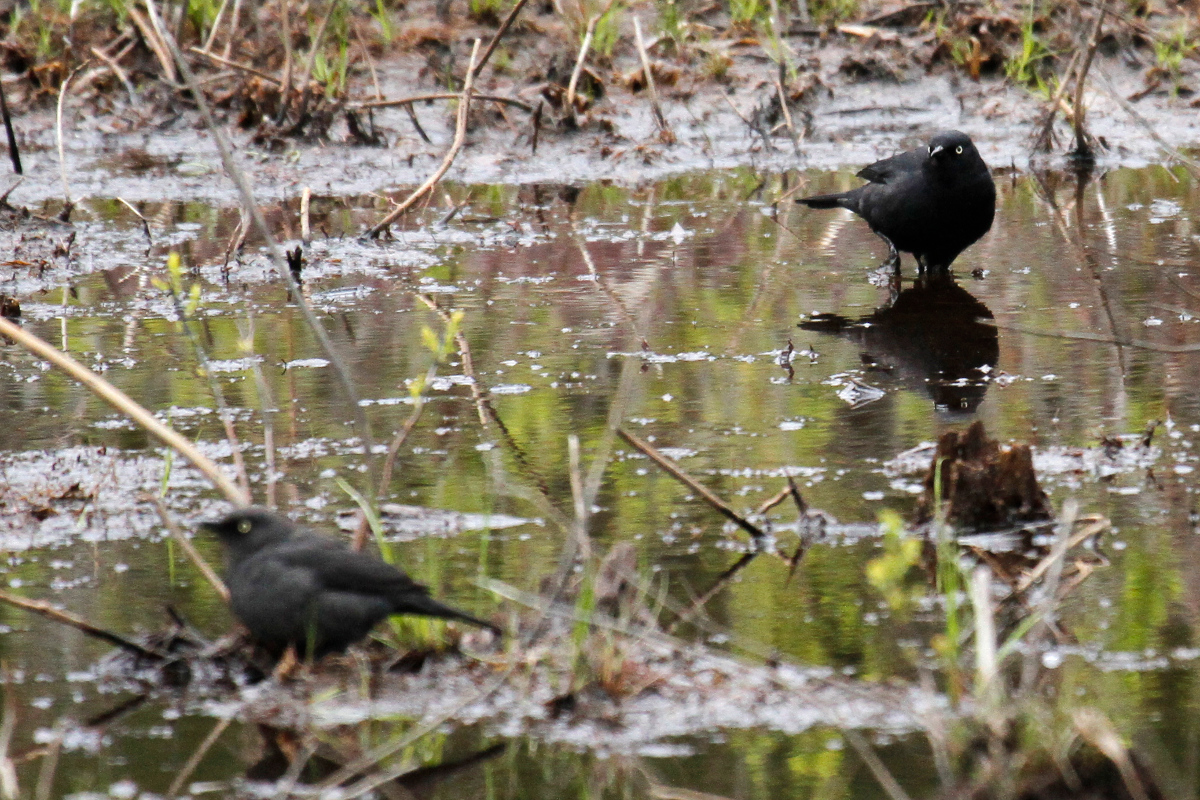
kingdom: Animalia
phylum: Chordata
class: Aves
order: Passeriformes
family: Icteridae
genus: Euphagus
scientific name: Euphagus carolinus
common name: Rusty blackbird
